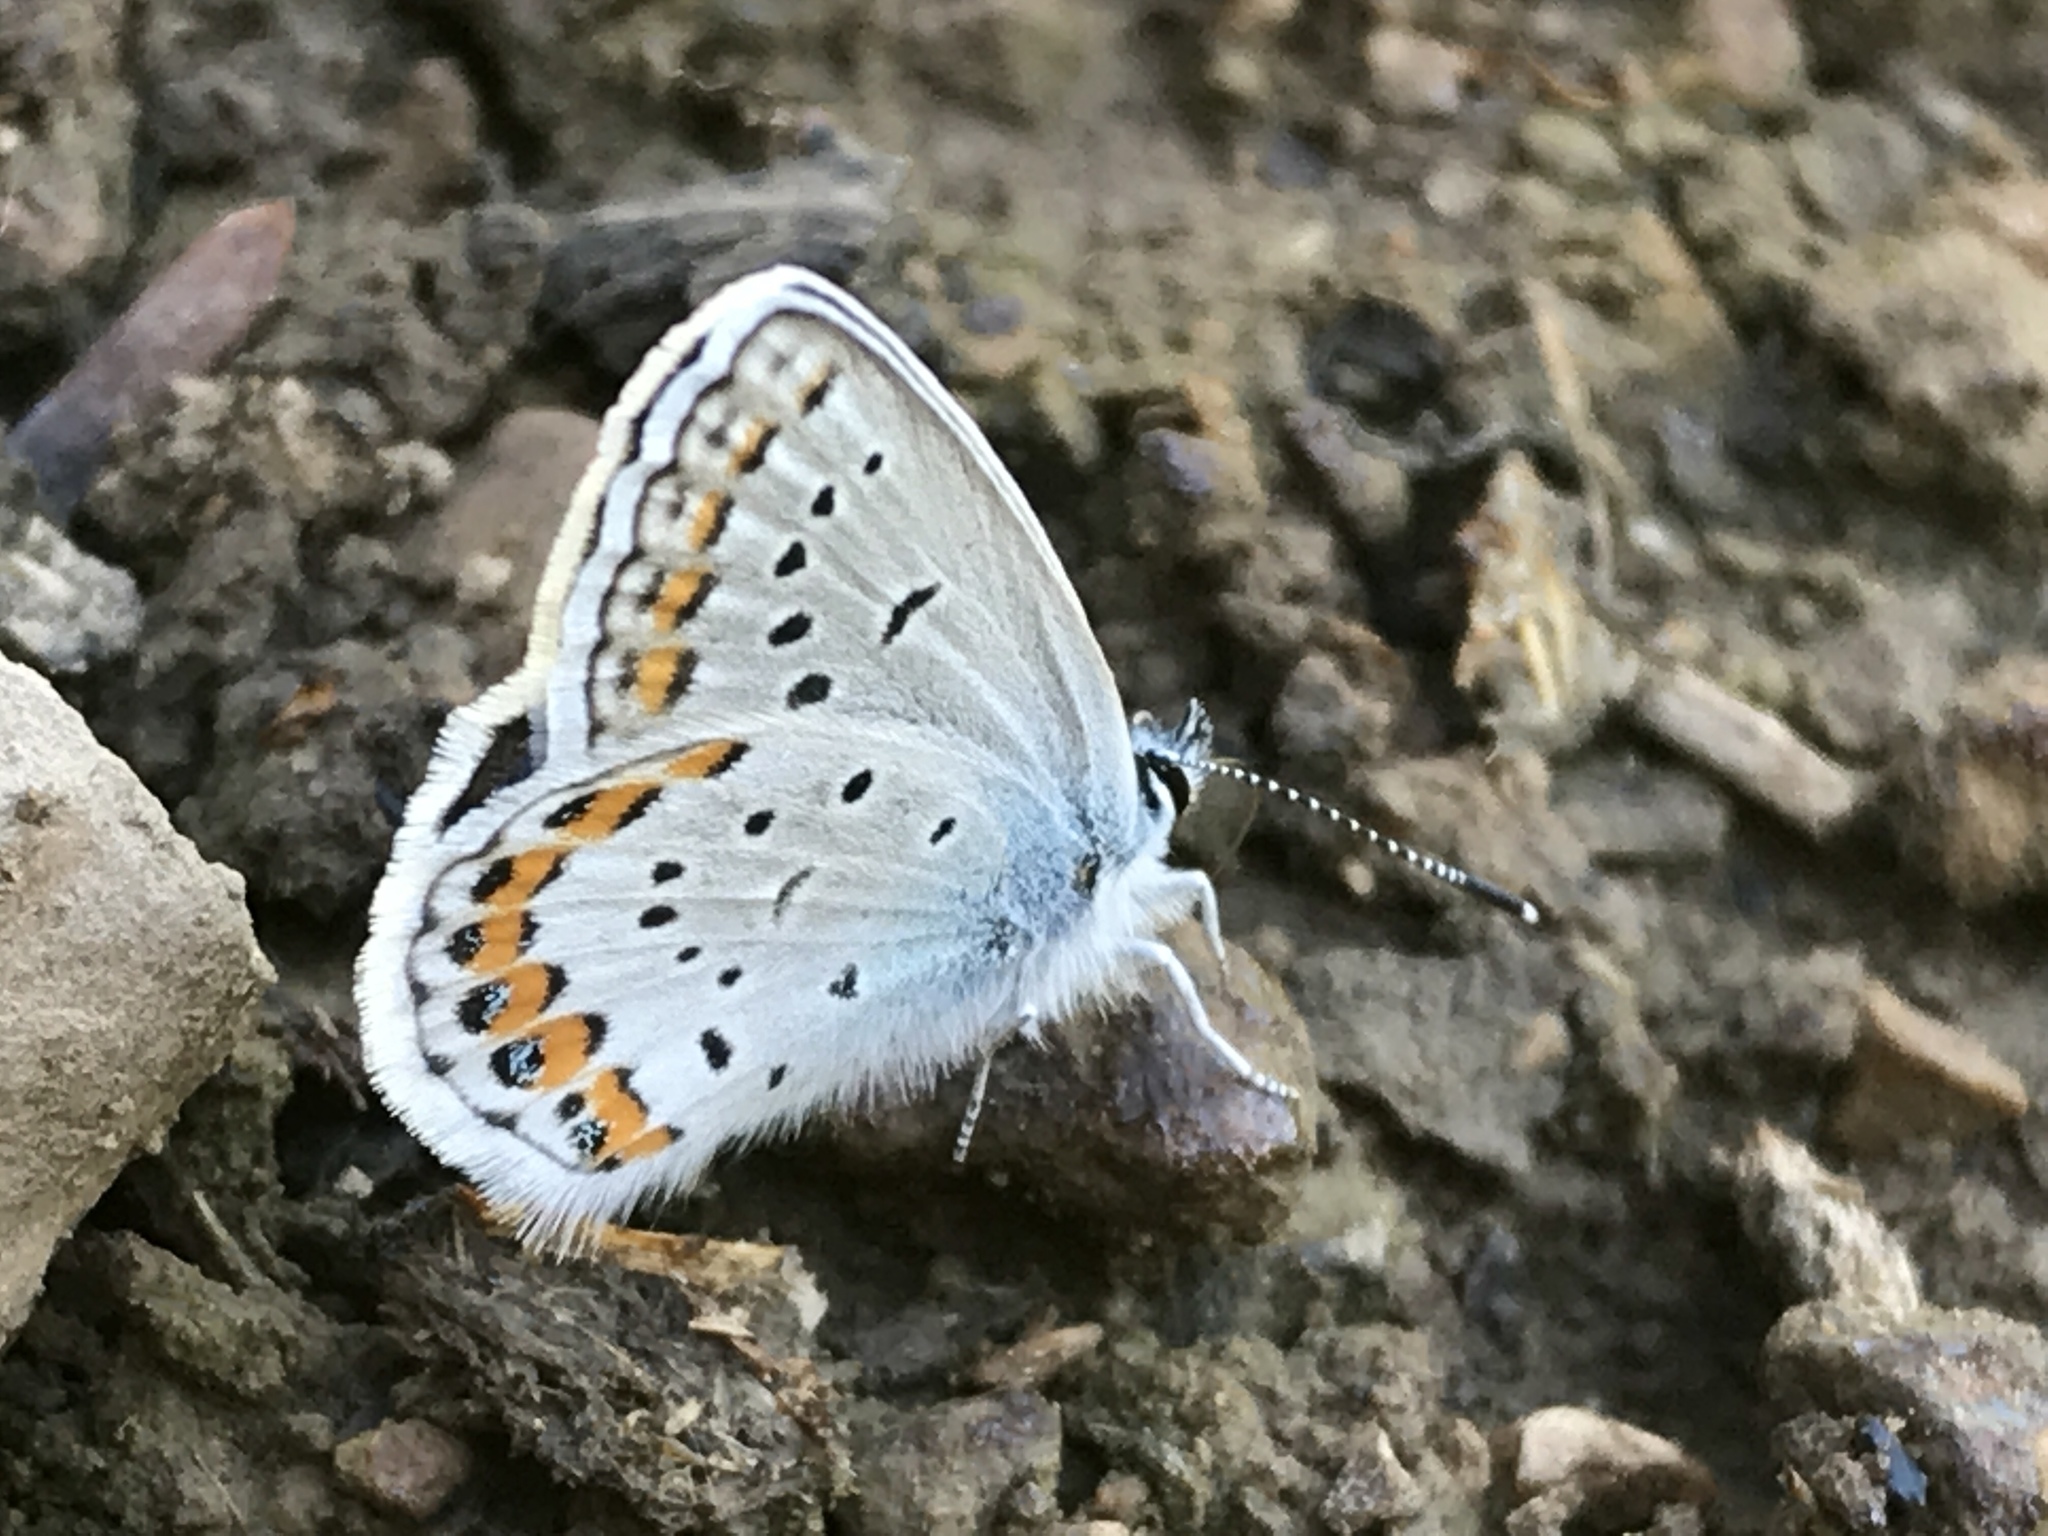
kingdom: Animalia
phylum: Arthropoda
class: Insecta
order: Lepidoptera
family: Lycaenidae
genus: Lycaeides
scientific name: Lycaeides melissa
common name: Melissa blue
